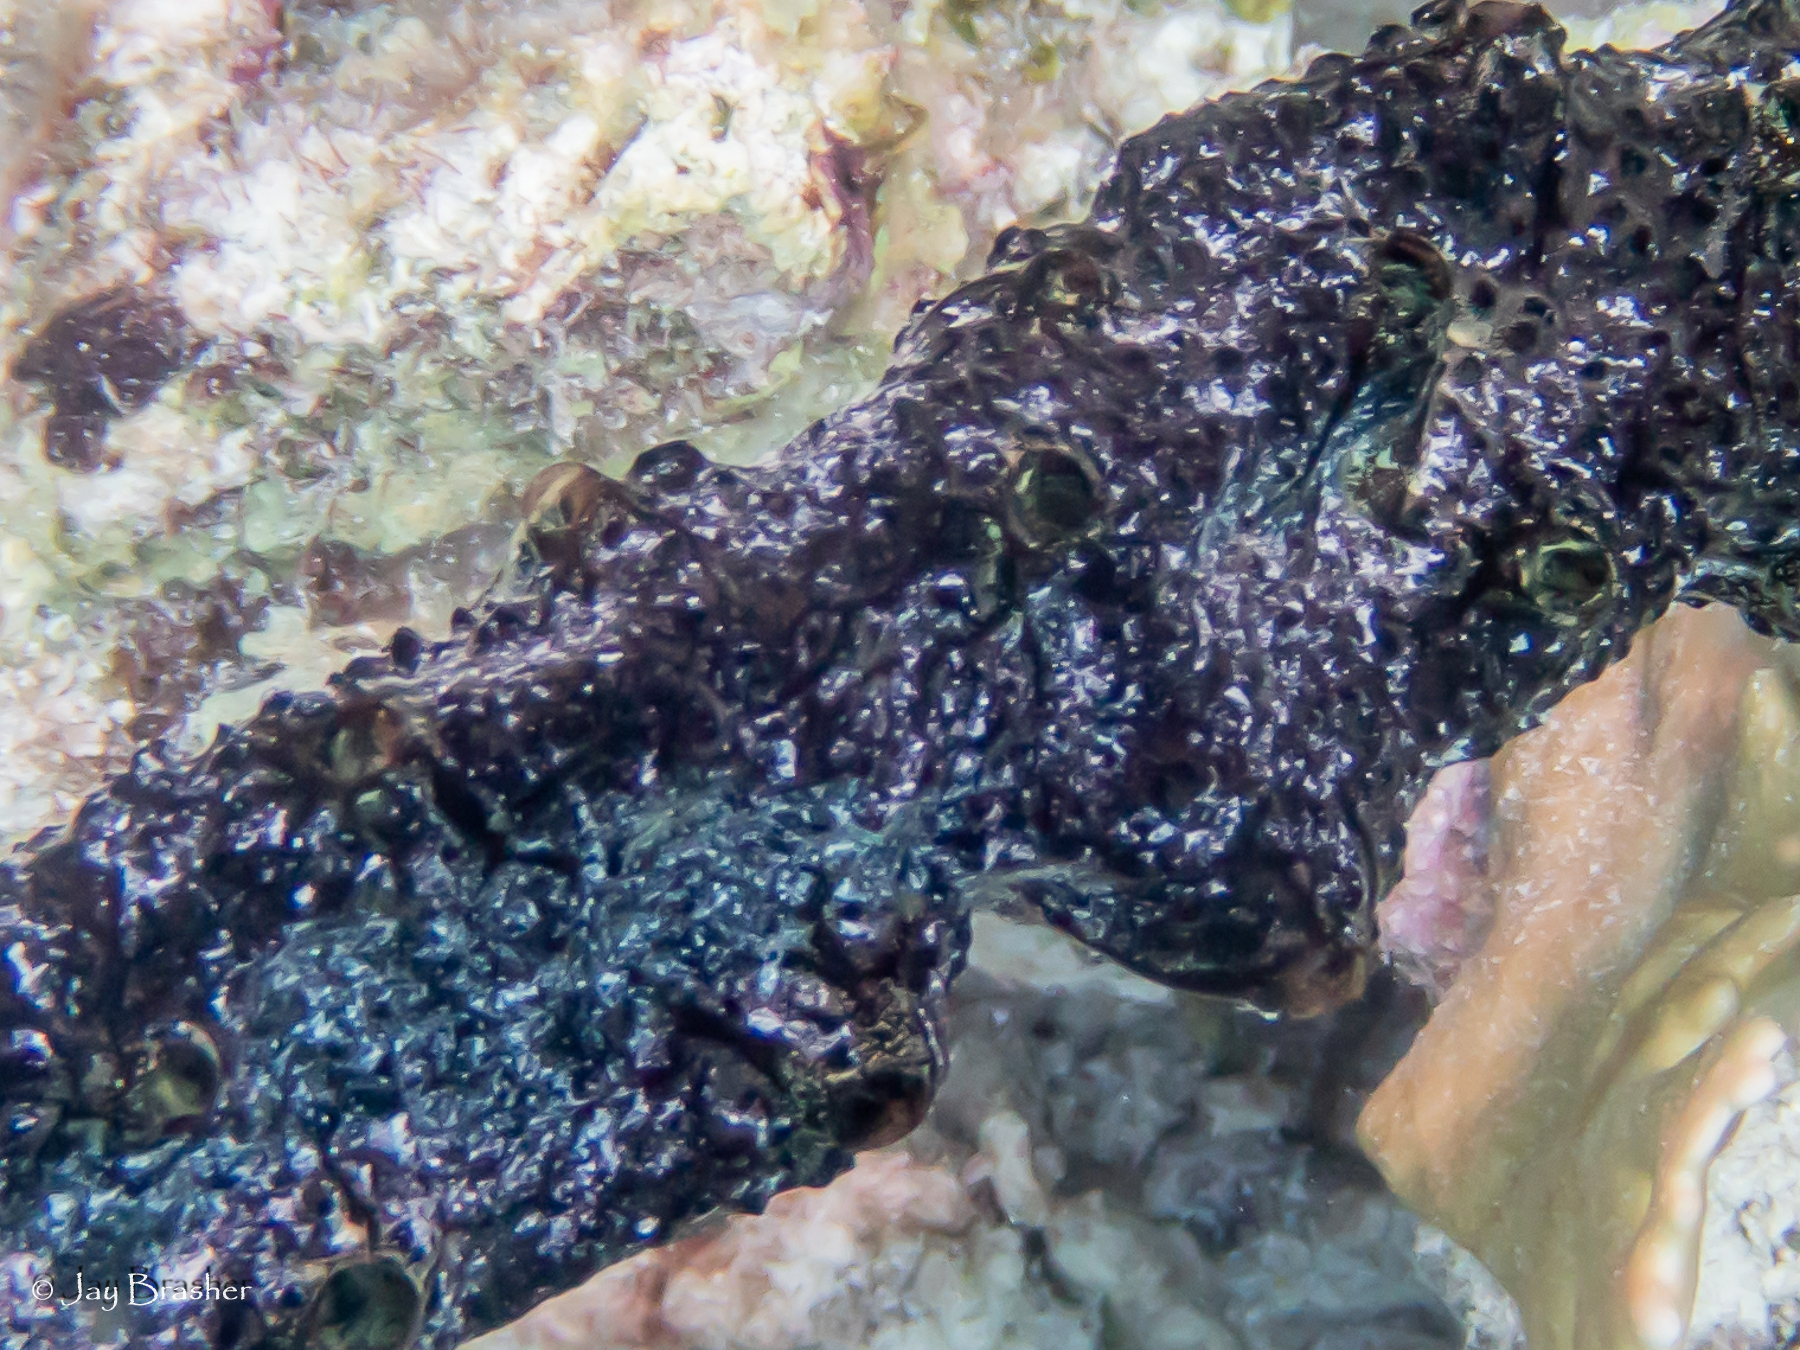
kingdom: Animalia
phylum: Porifera
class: Demospongiae
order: Poecilosclerida
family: Iotrochotidae
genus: Iotrochota
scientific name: Iotrochota birotulata
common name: Purple bleeding sponge
